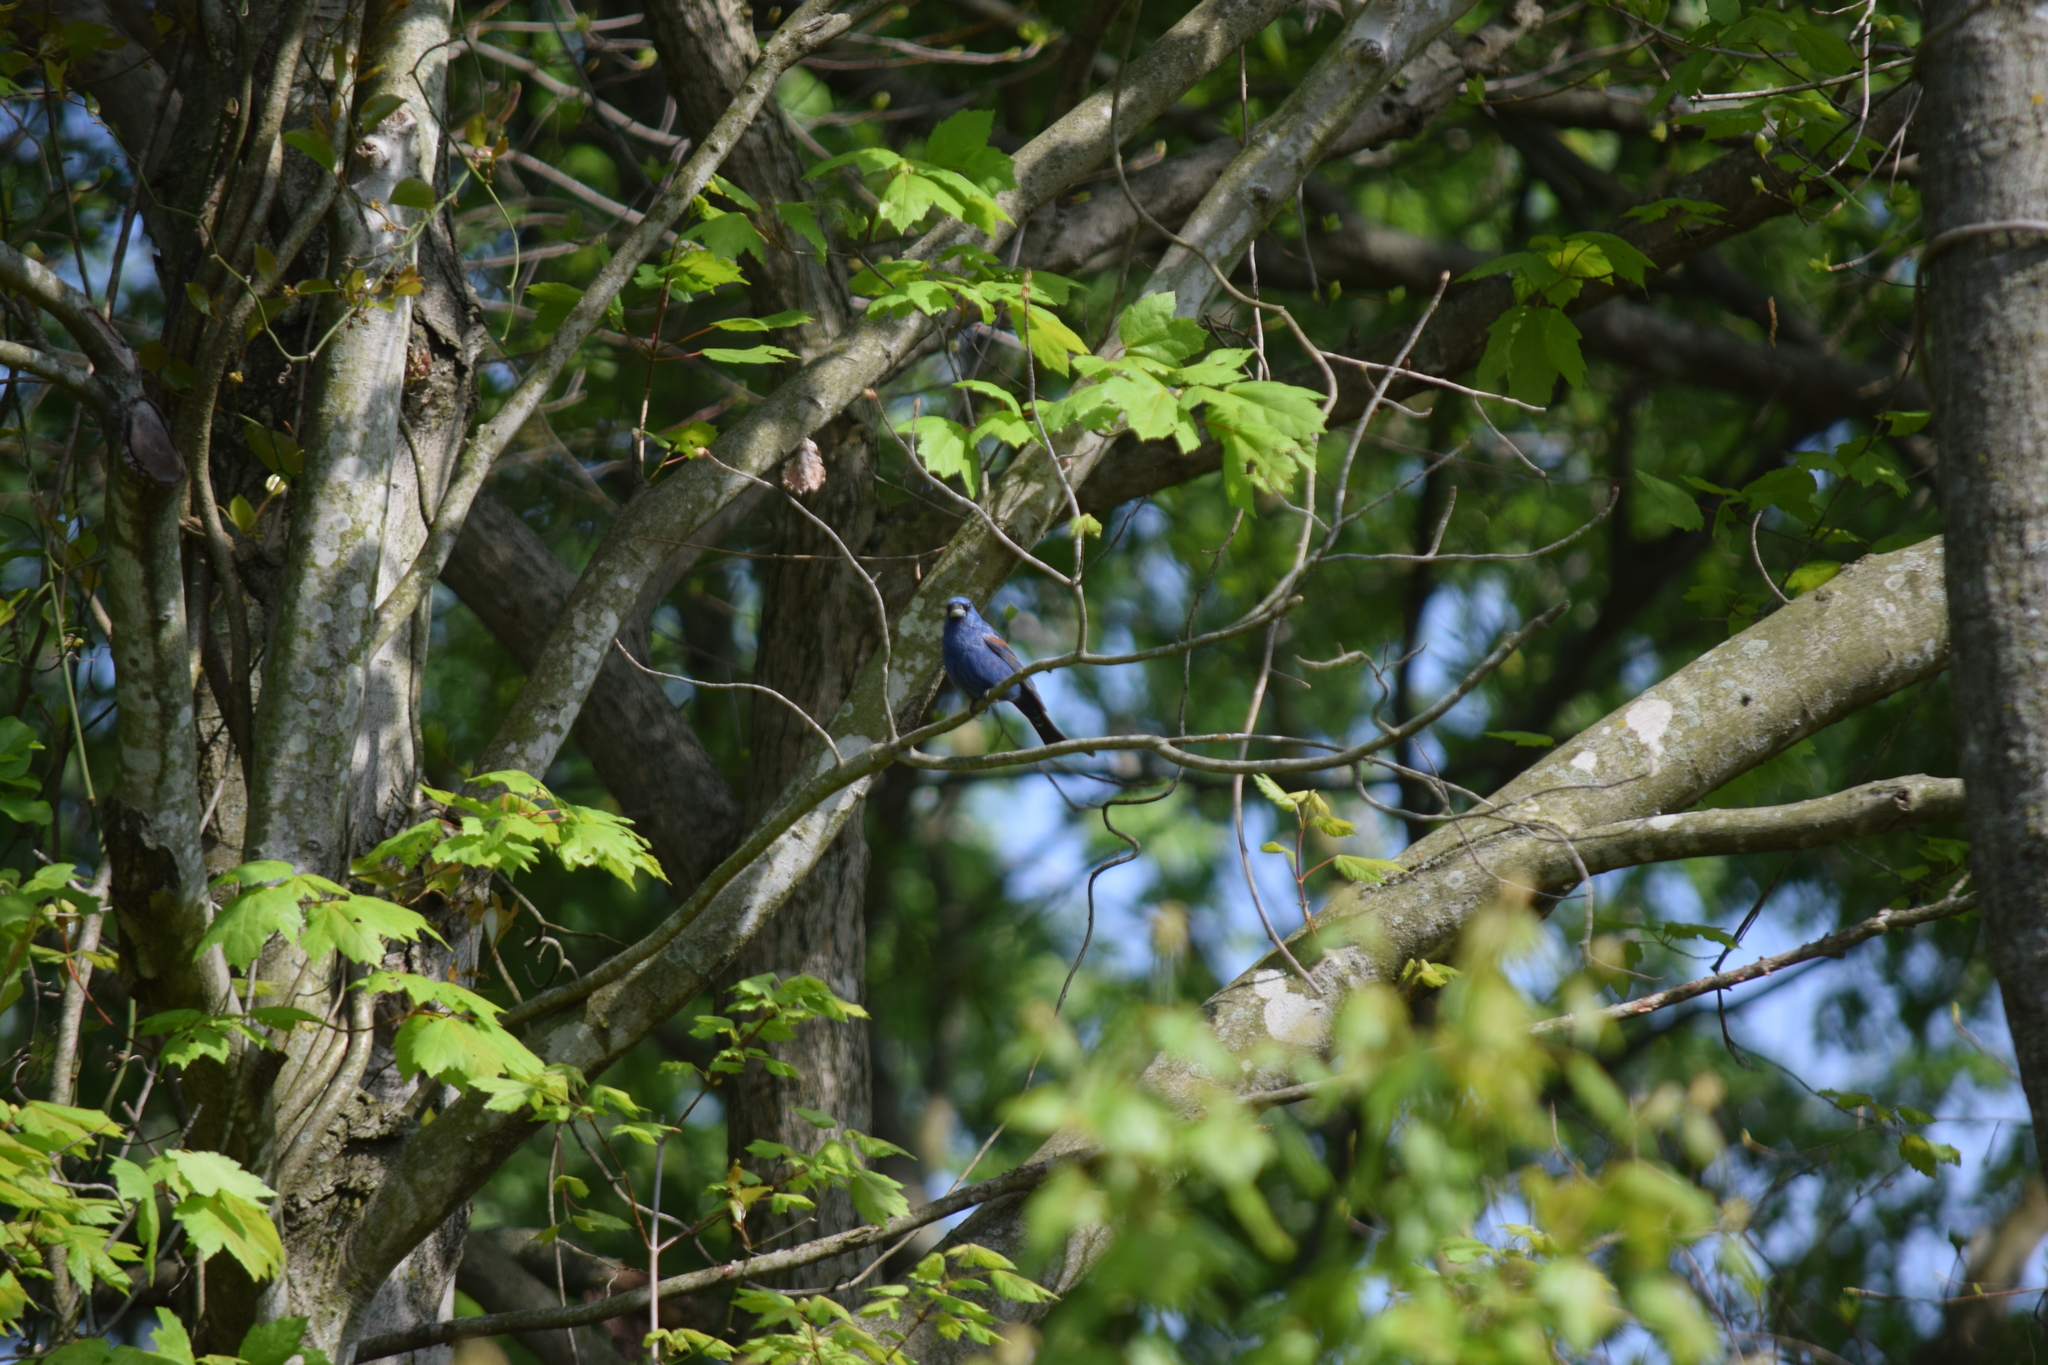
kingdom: Animalia
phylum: Chordata
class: Aves
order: Passeriformes
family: Cardinalidae
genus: Passerina
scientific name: Passerina caerulea
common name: Blue grosbeak
